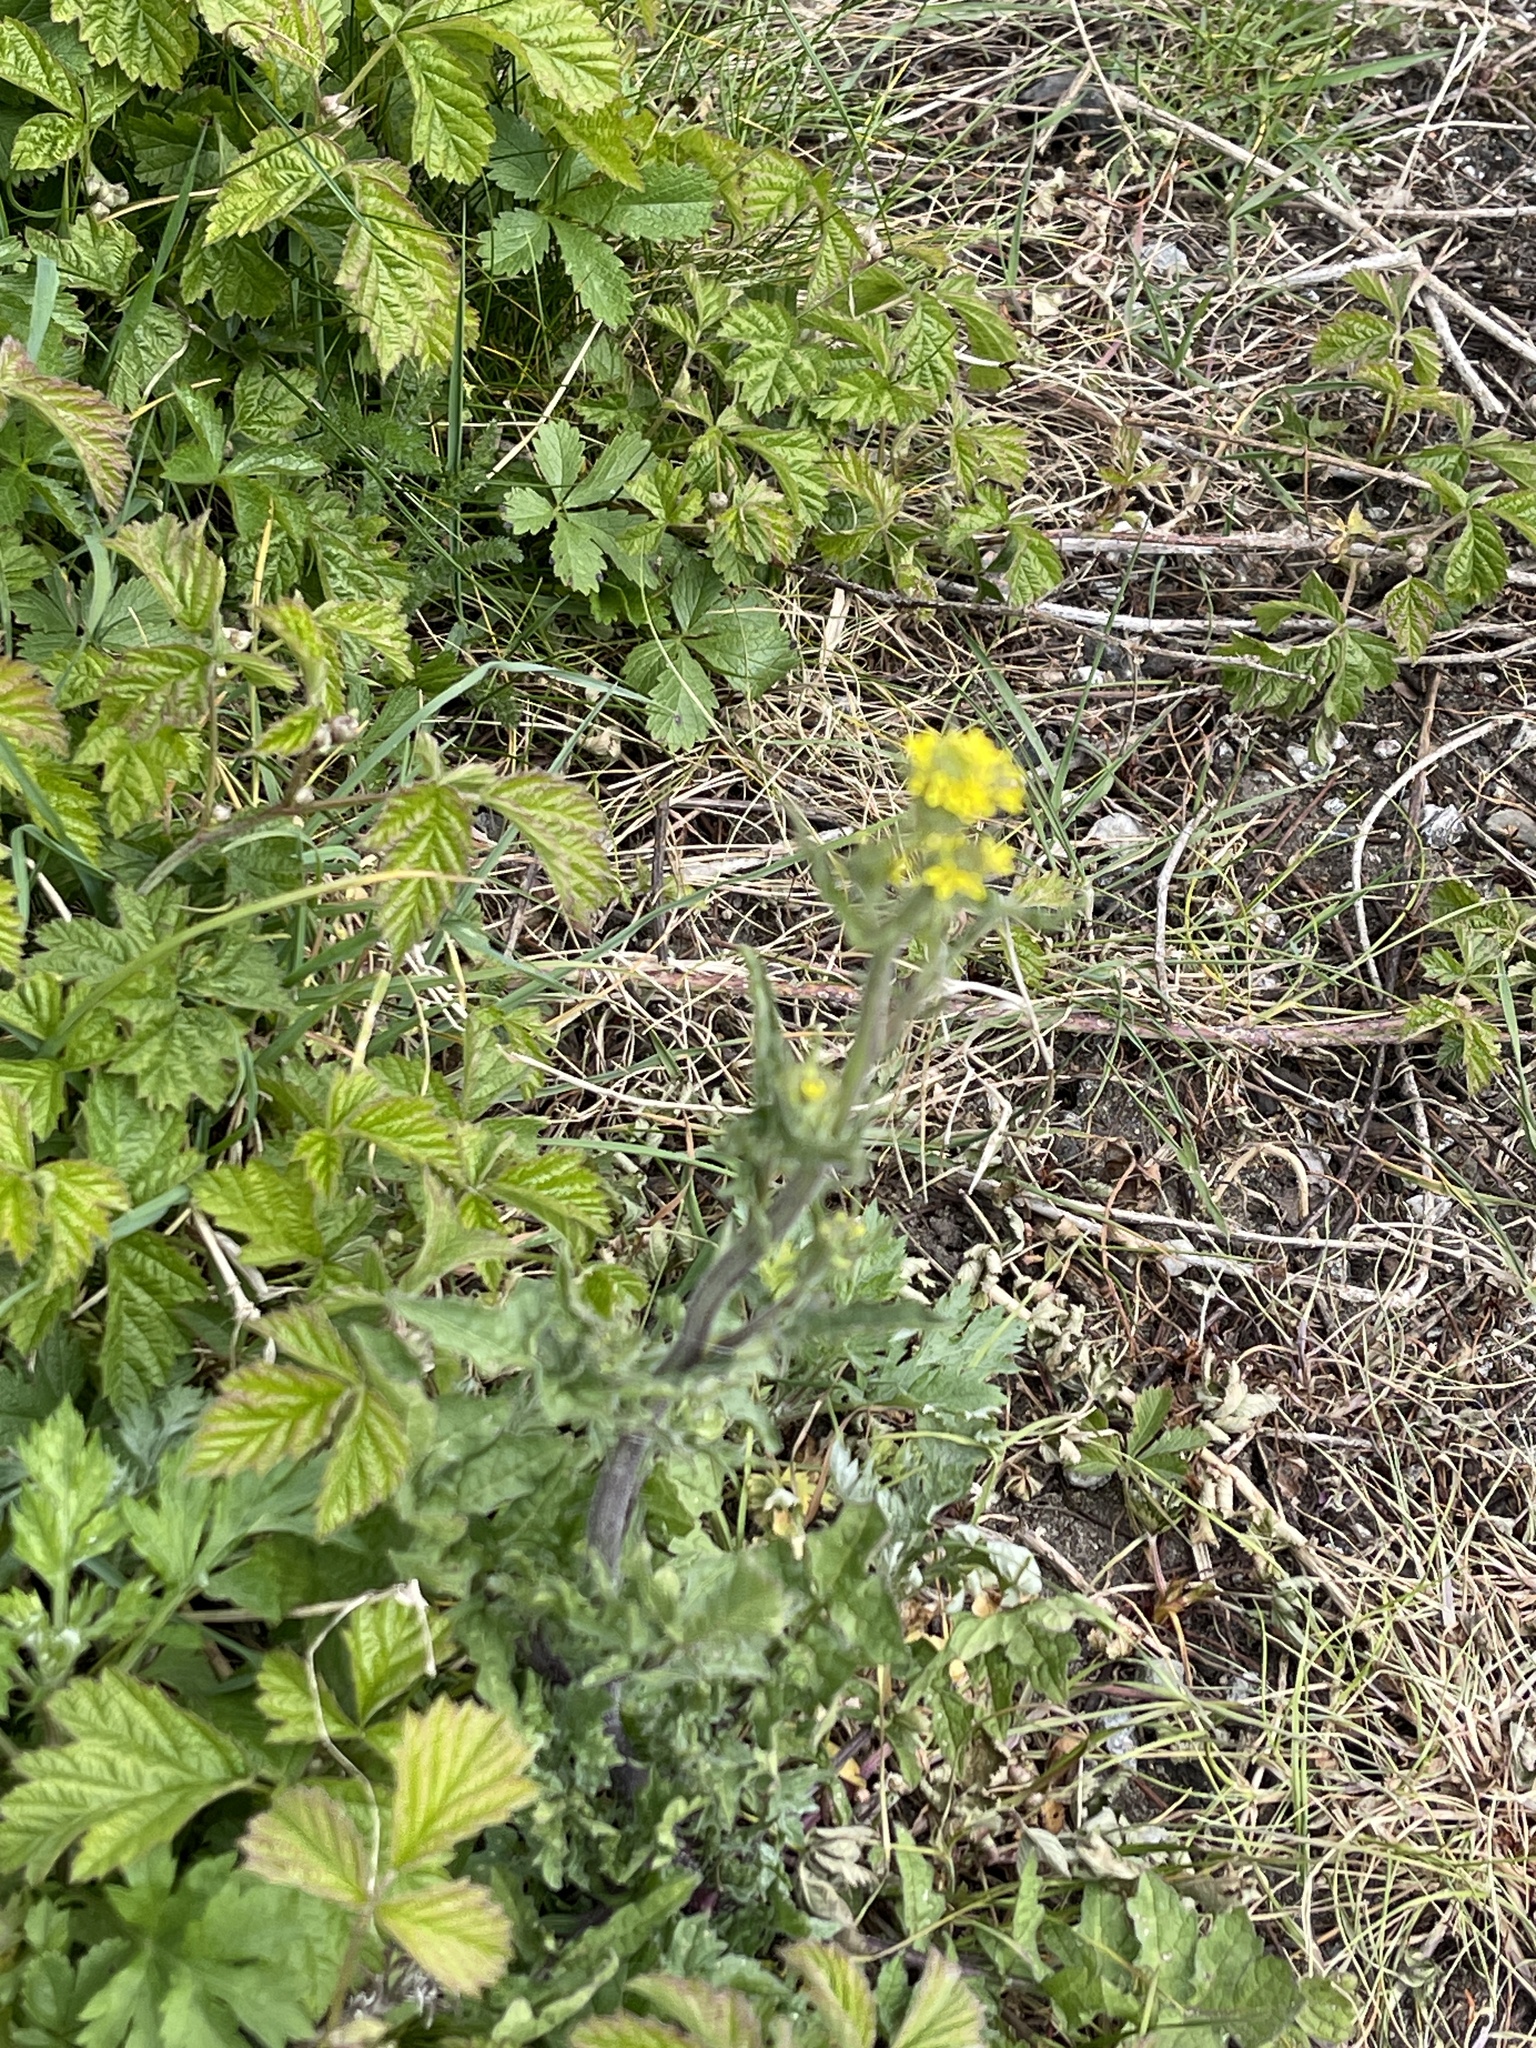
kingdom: Plantae
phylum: Tracheophyta
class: Magnoliopsida
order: Brassicales
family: Brassicaceae
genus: Sisymbrium
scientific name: Sisymbrium officinale
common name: Hedge mustard
